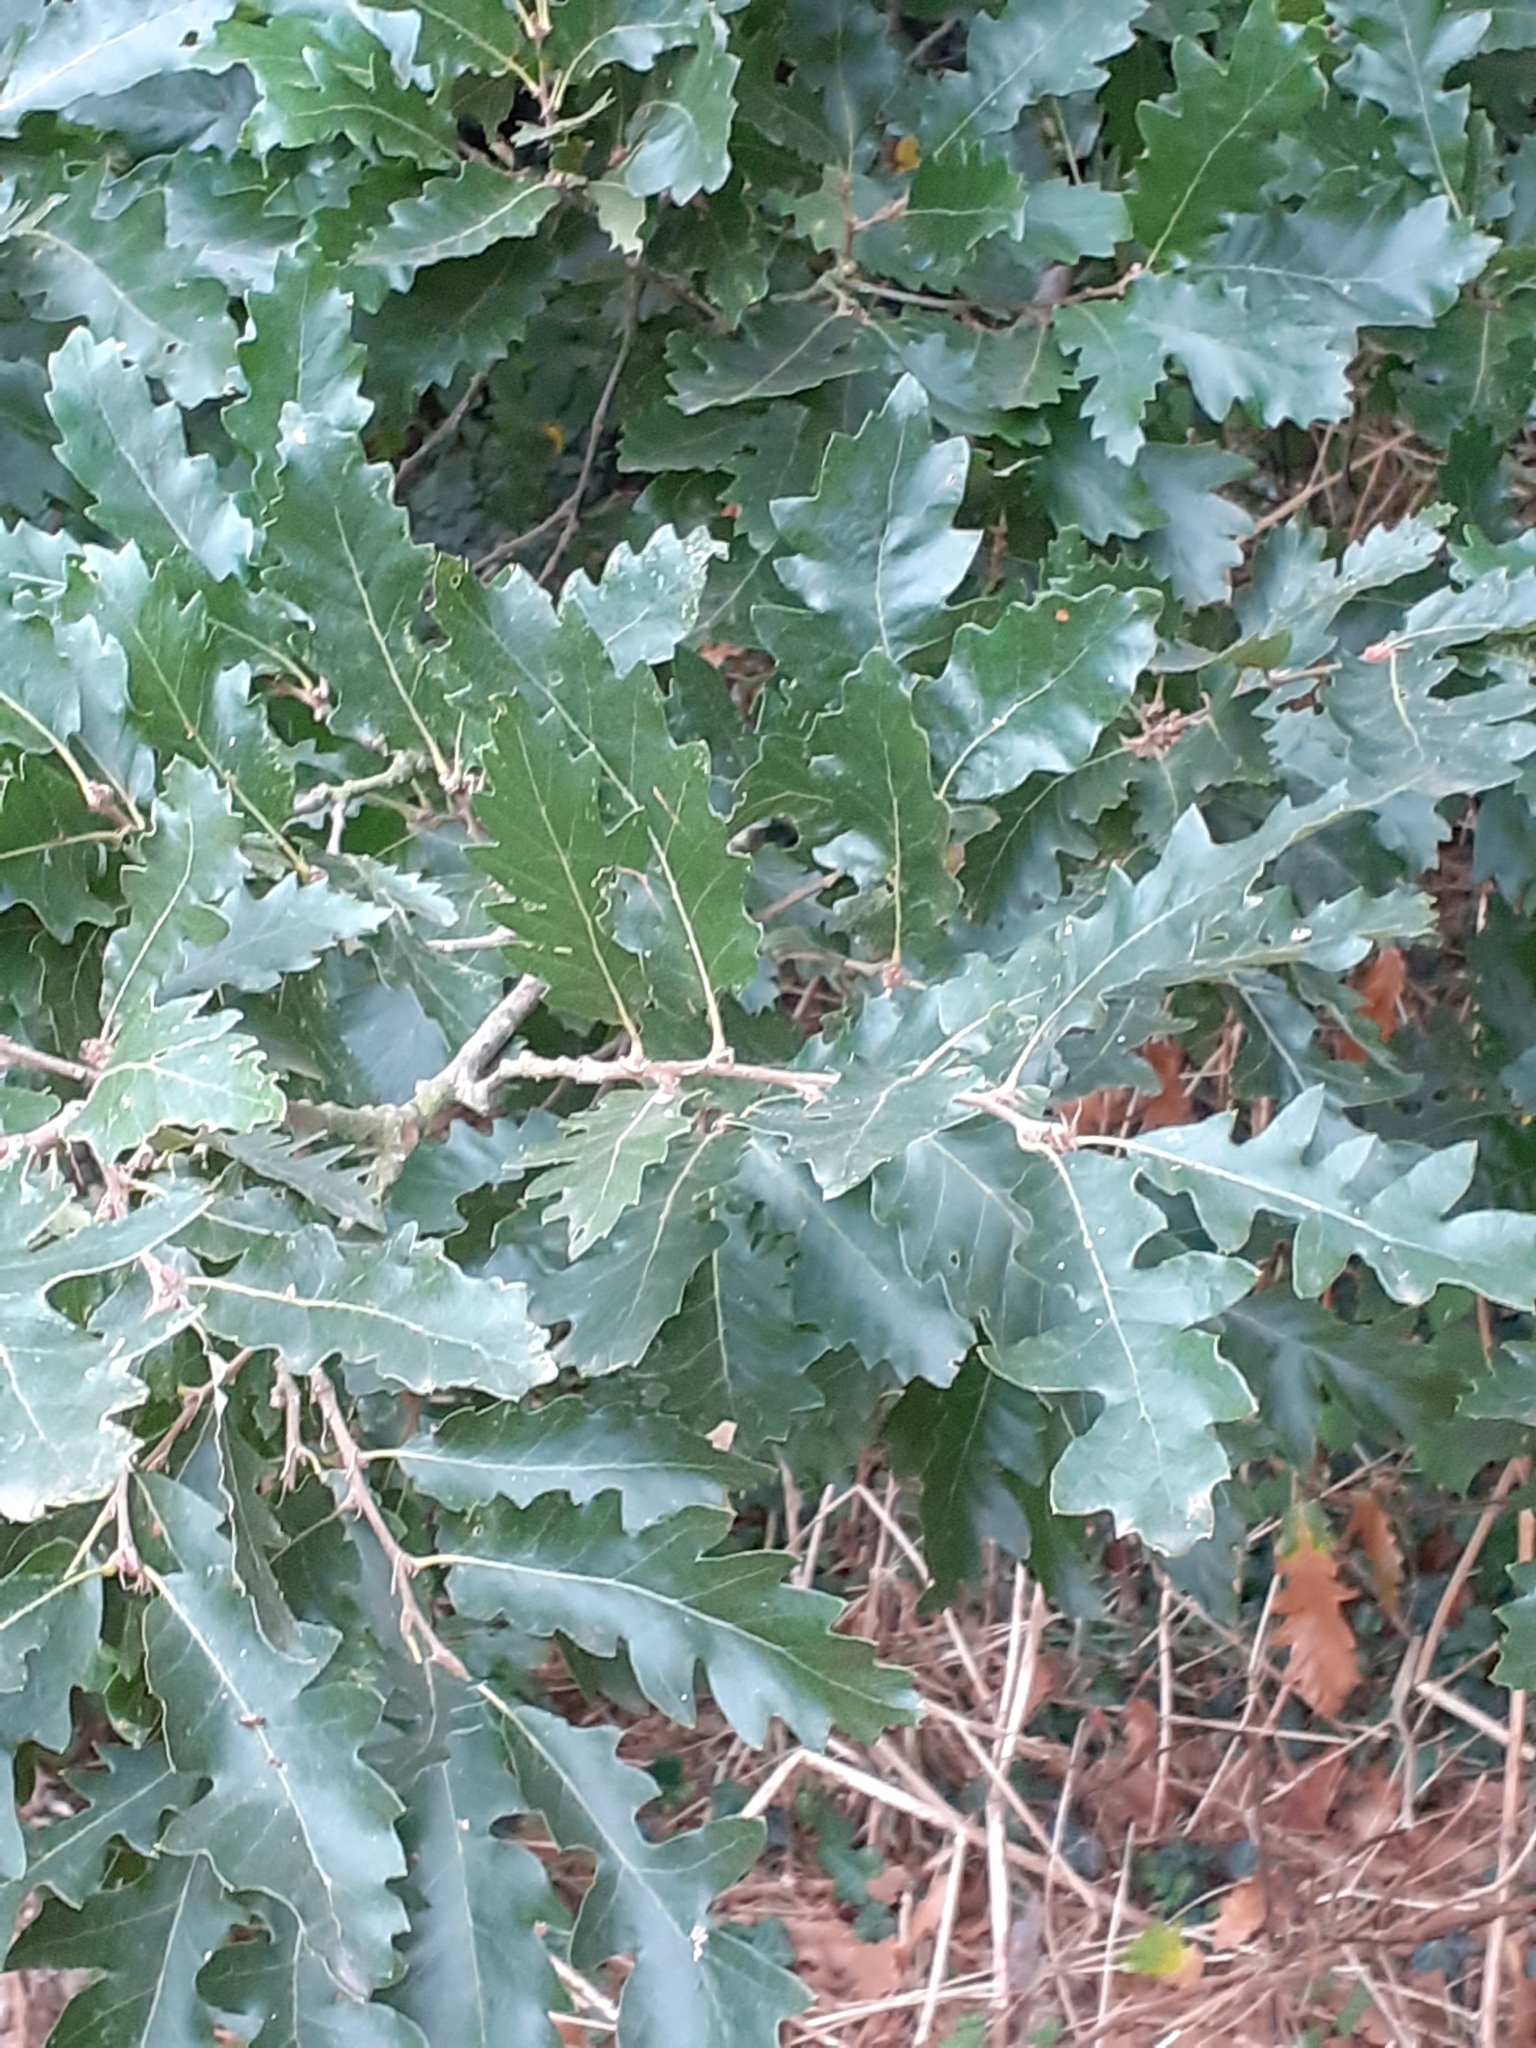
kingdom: Plantae
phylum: Tracheophyta
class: Magnoliopsida
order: Fagales
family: Fagaceae
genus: Quercus
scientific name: Quercus cerris
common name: Turkey oak
